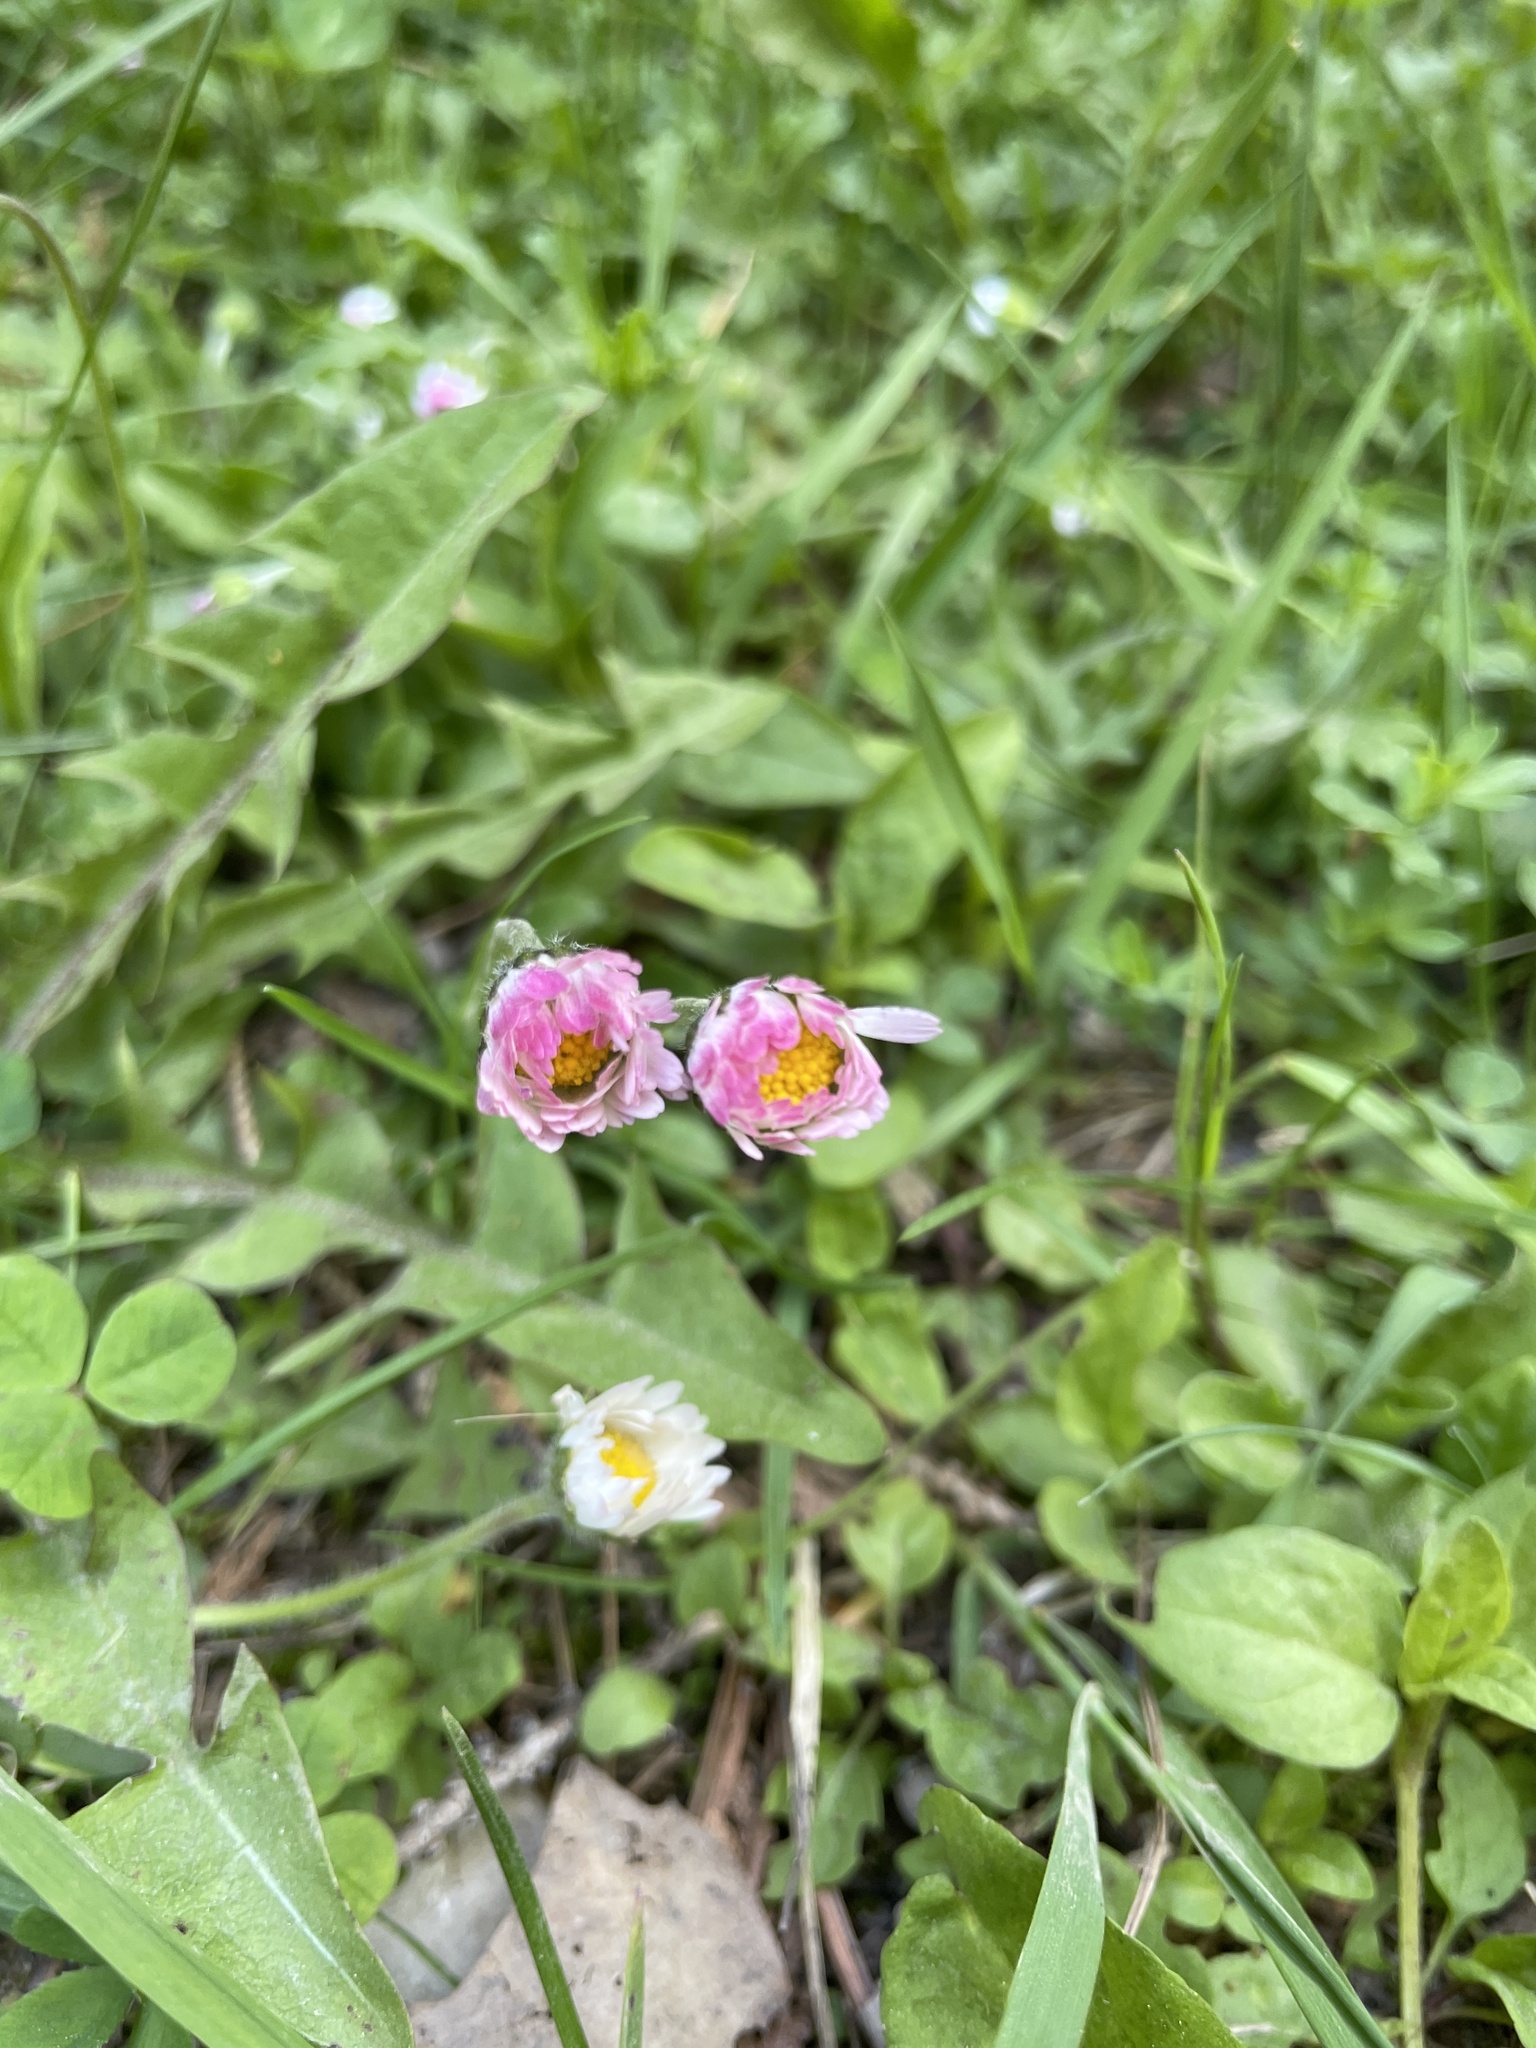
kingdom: Plantae
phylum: Tracheophyta
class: Magnoliopsida
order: Asterales
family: Asteraceae
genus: Bellis
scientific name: Bellis perennis
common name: Lawndaisy
